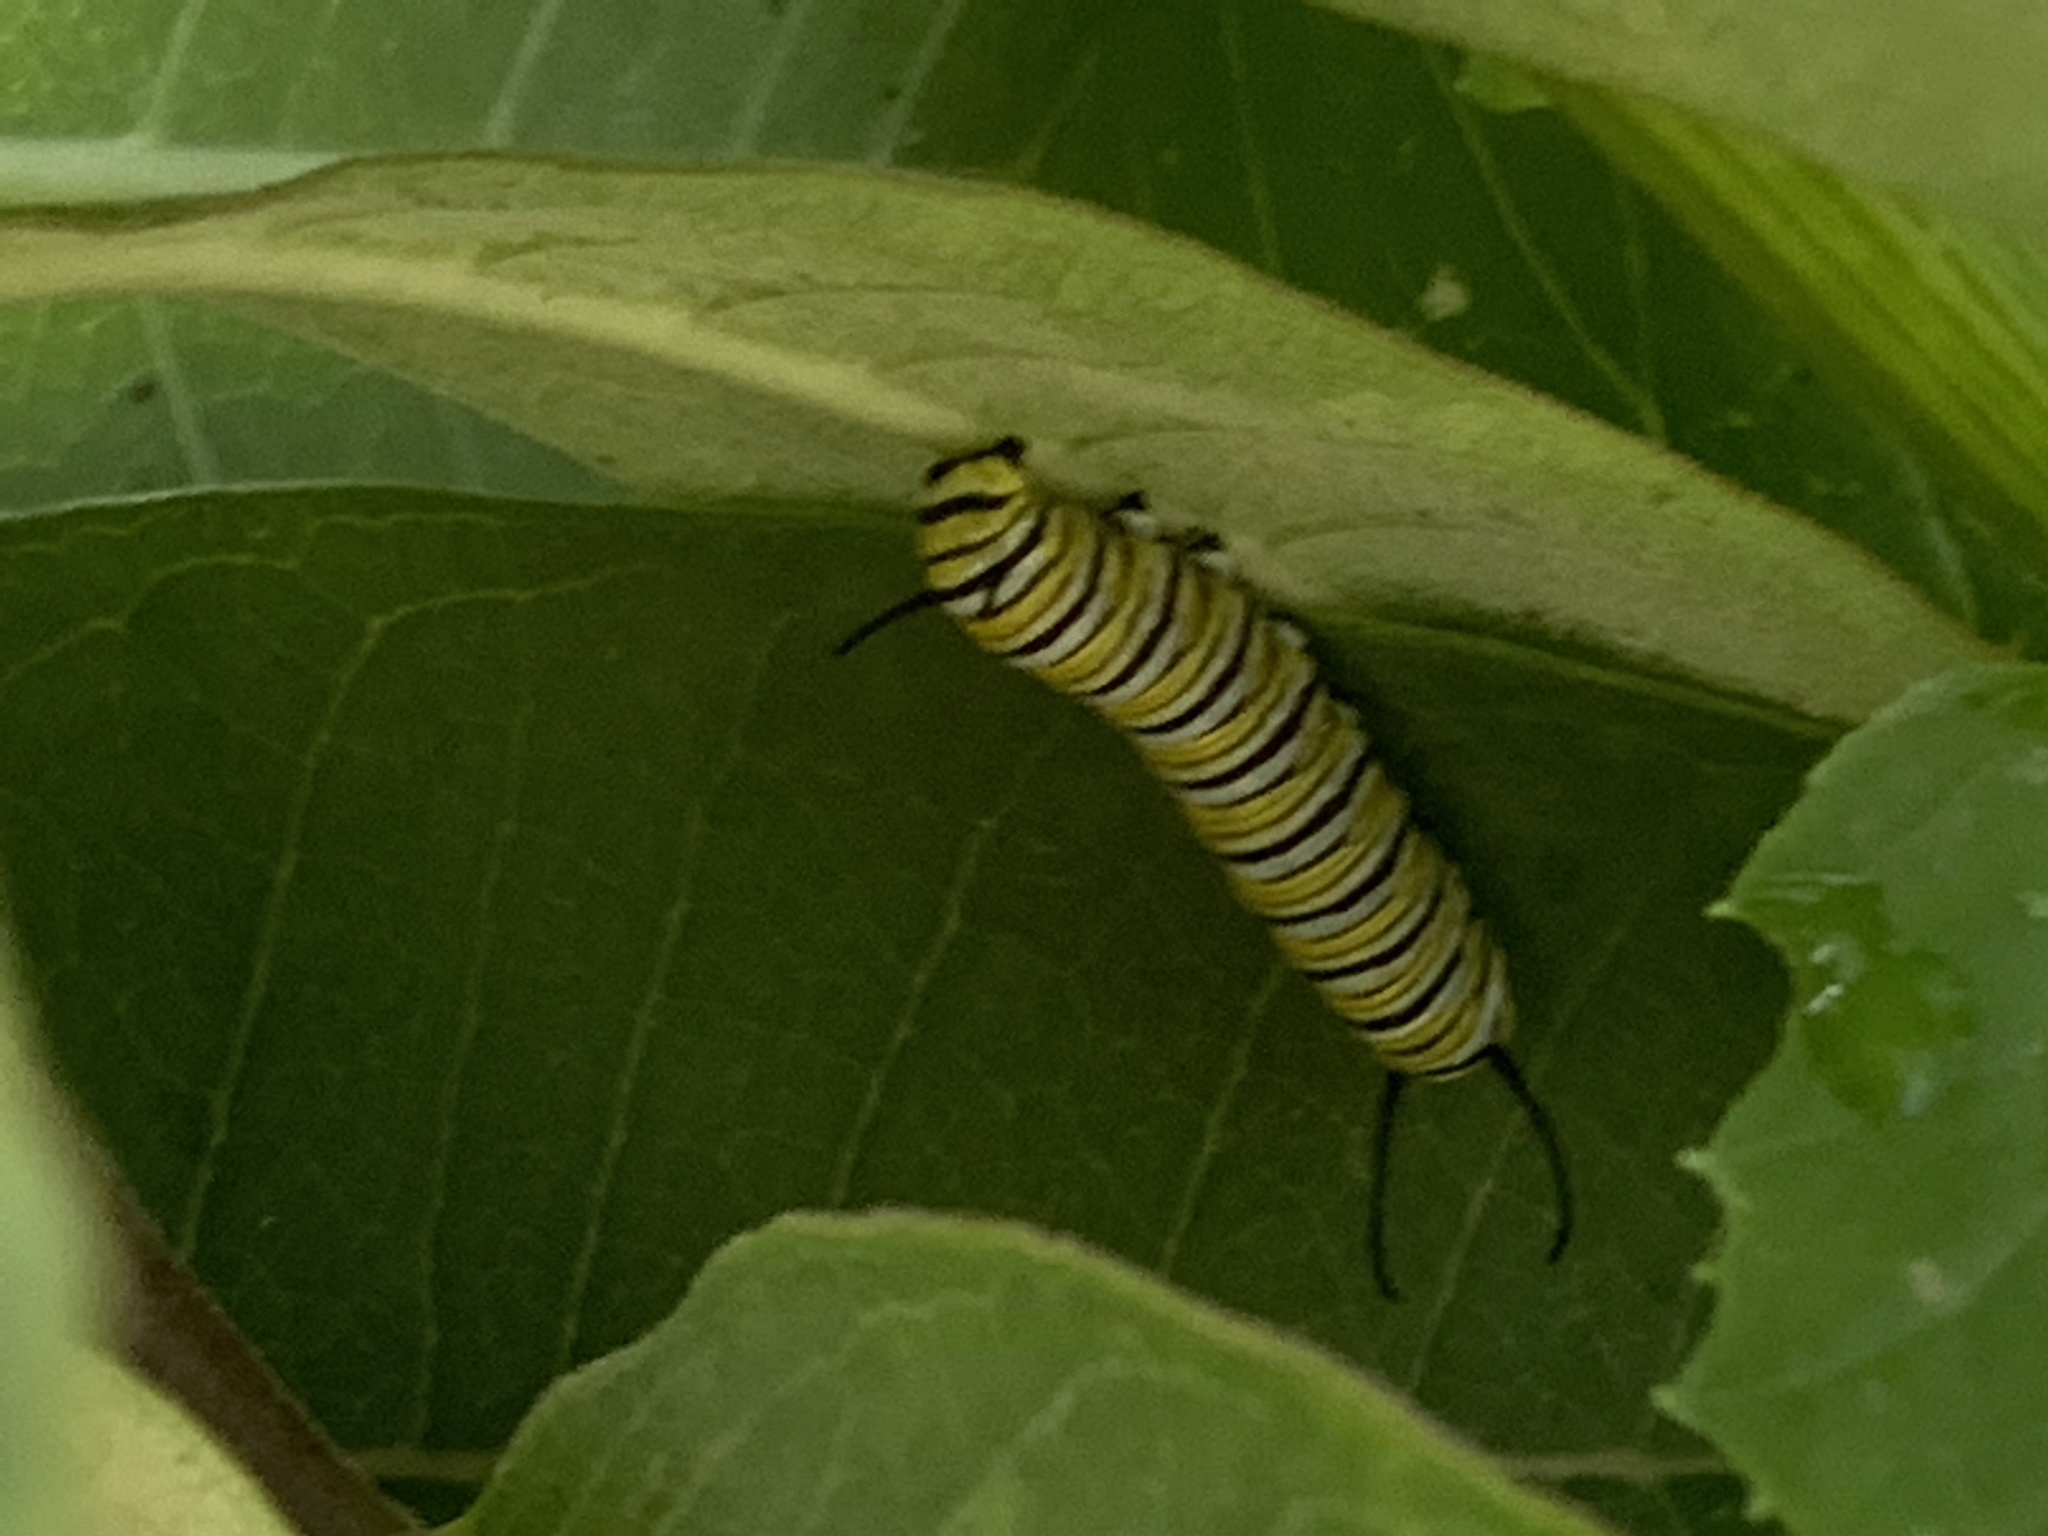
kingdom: Animalia
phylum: Arthropoda
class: Insecta
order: Lepidoptera
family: Nymphalidae
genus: Danaus
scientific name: Danaus plexippus
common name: Monarch
